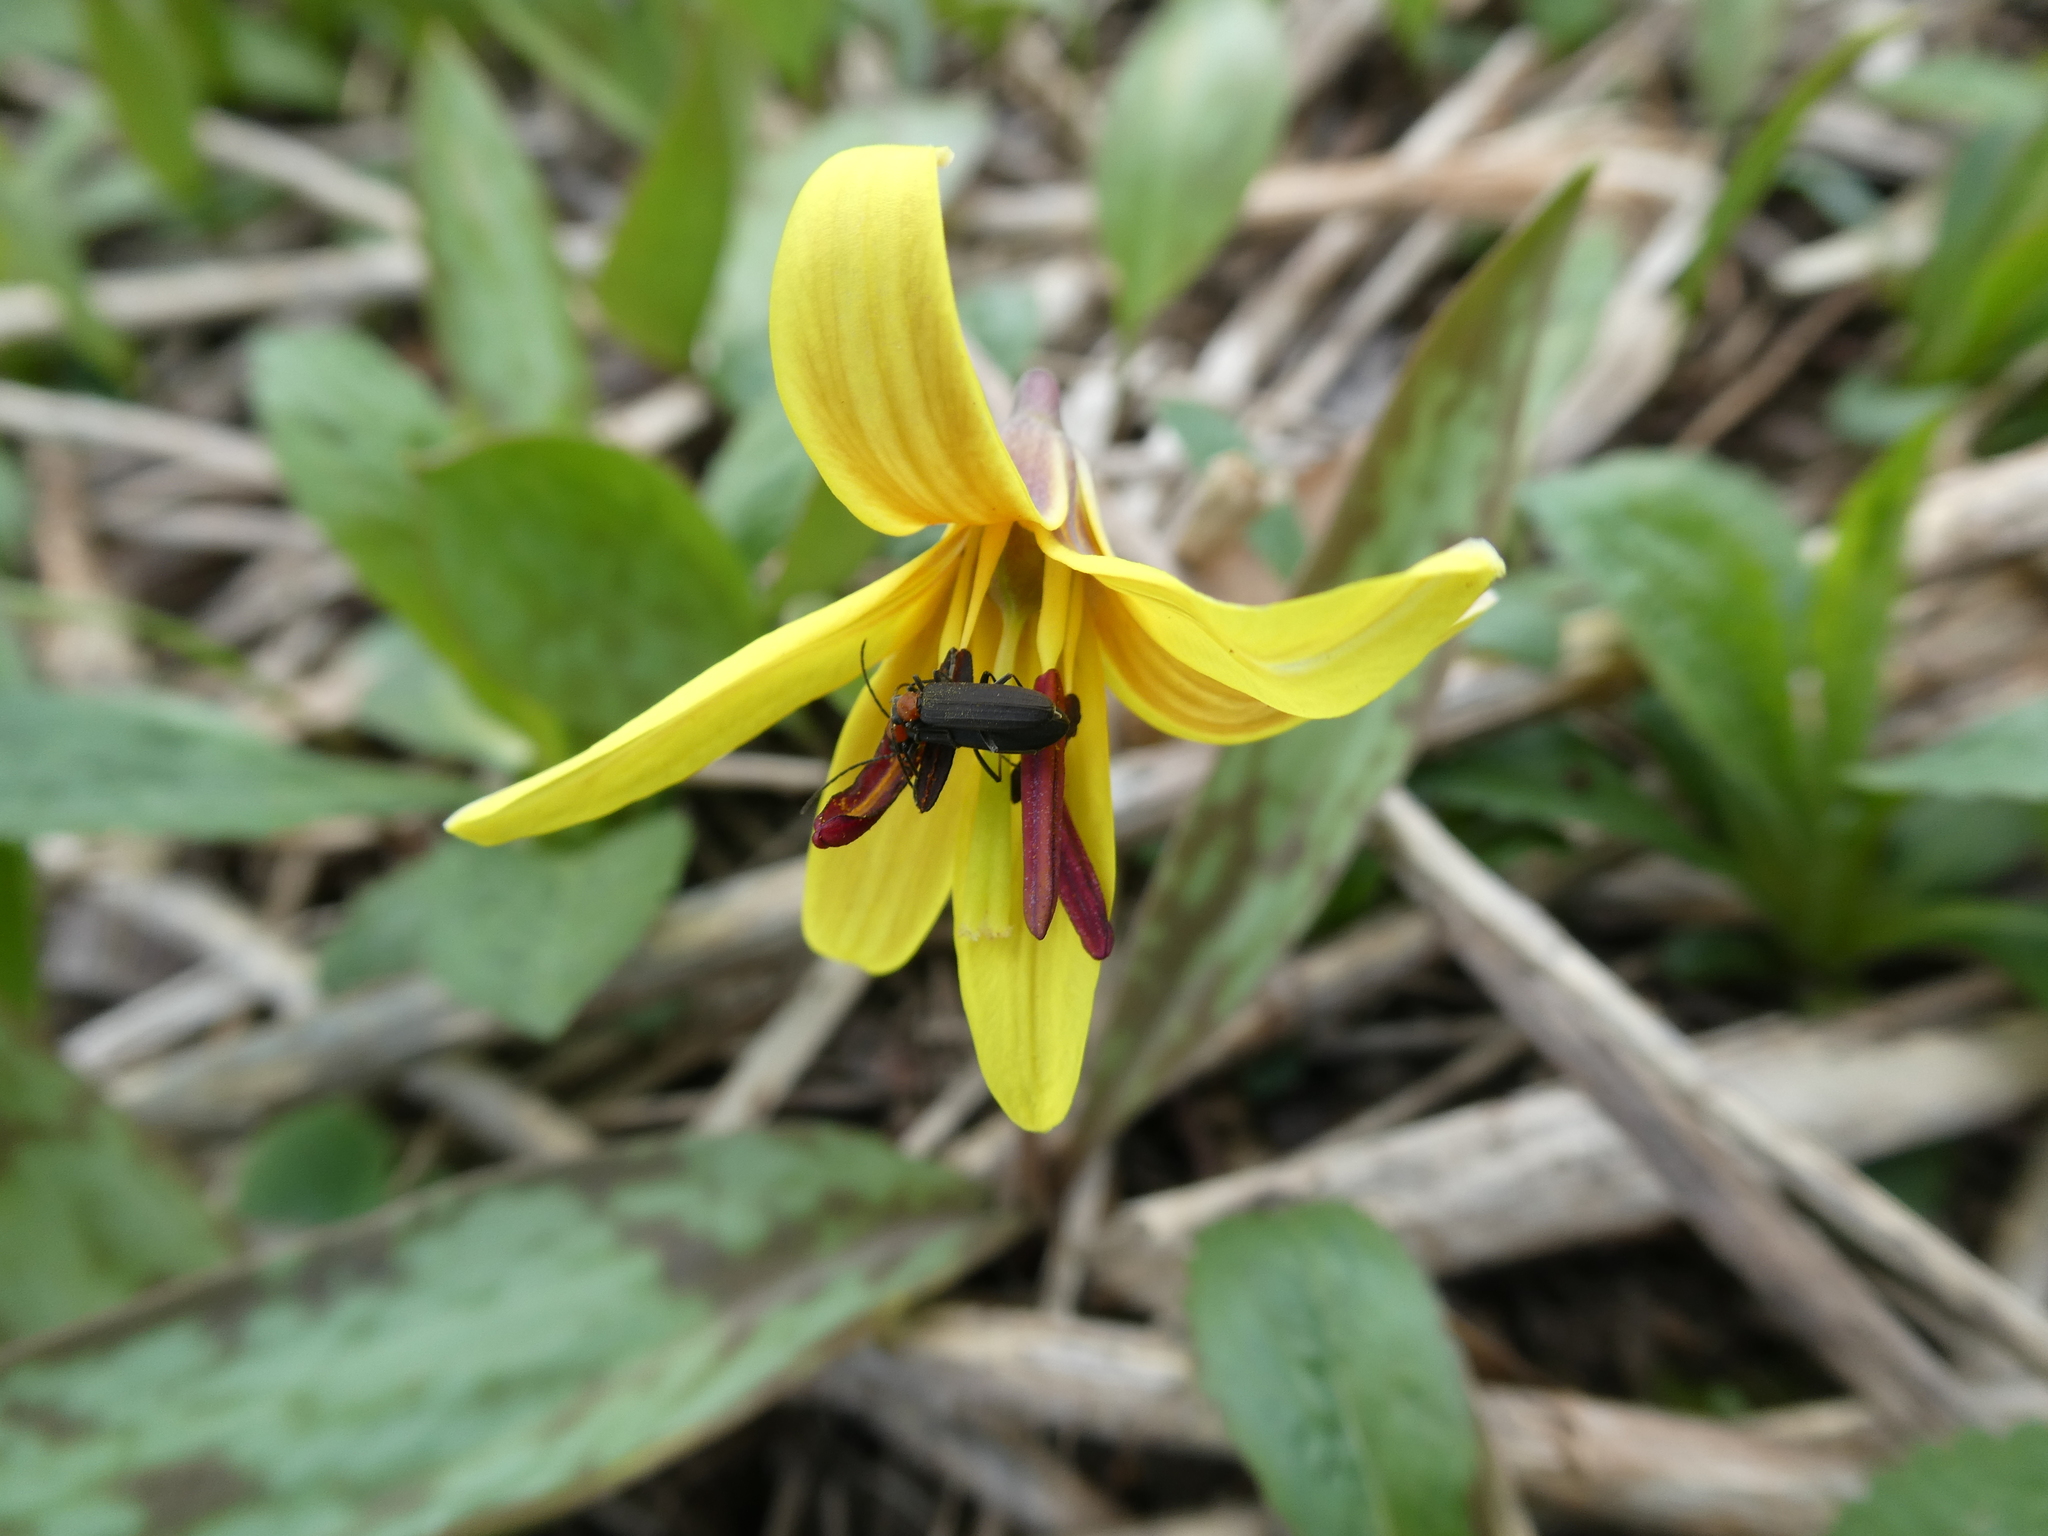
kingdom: Animalia
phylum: Arthropoda
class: Insecta
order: Coleoptera
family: Oedemeridae
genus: Ischnomera
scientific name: Ischnomera
